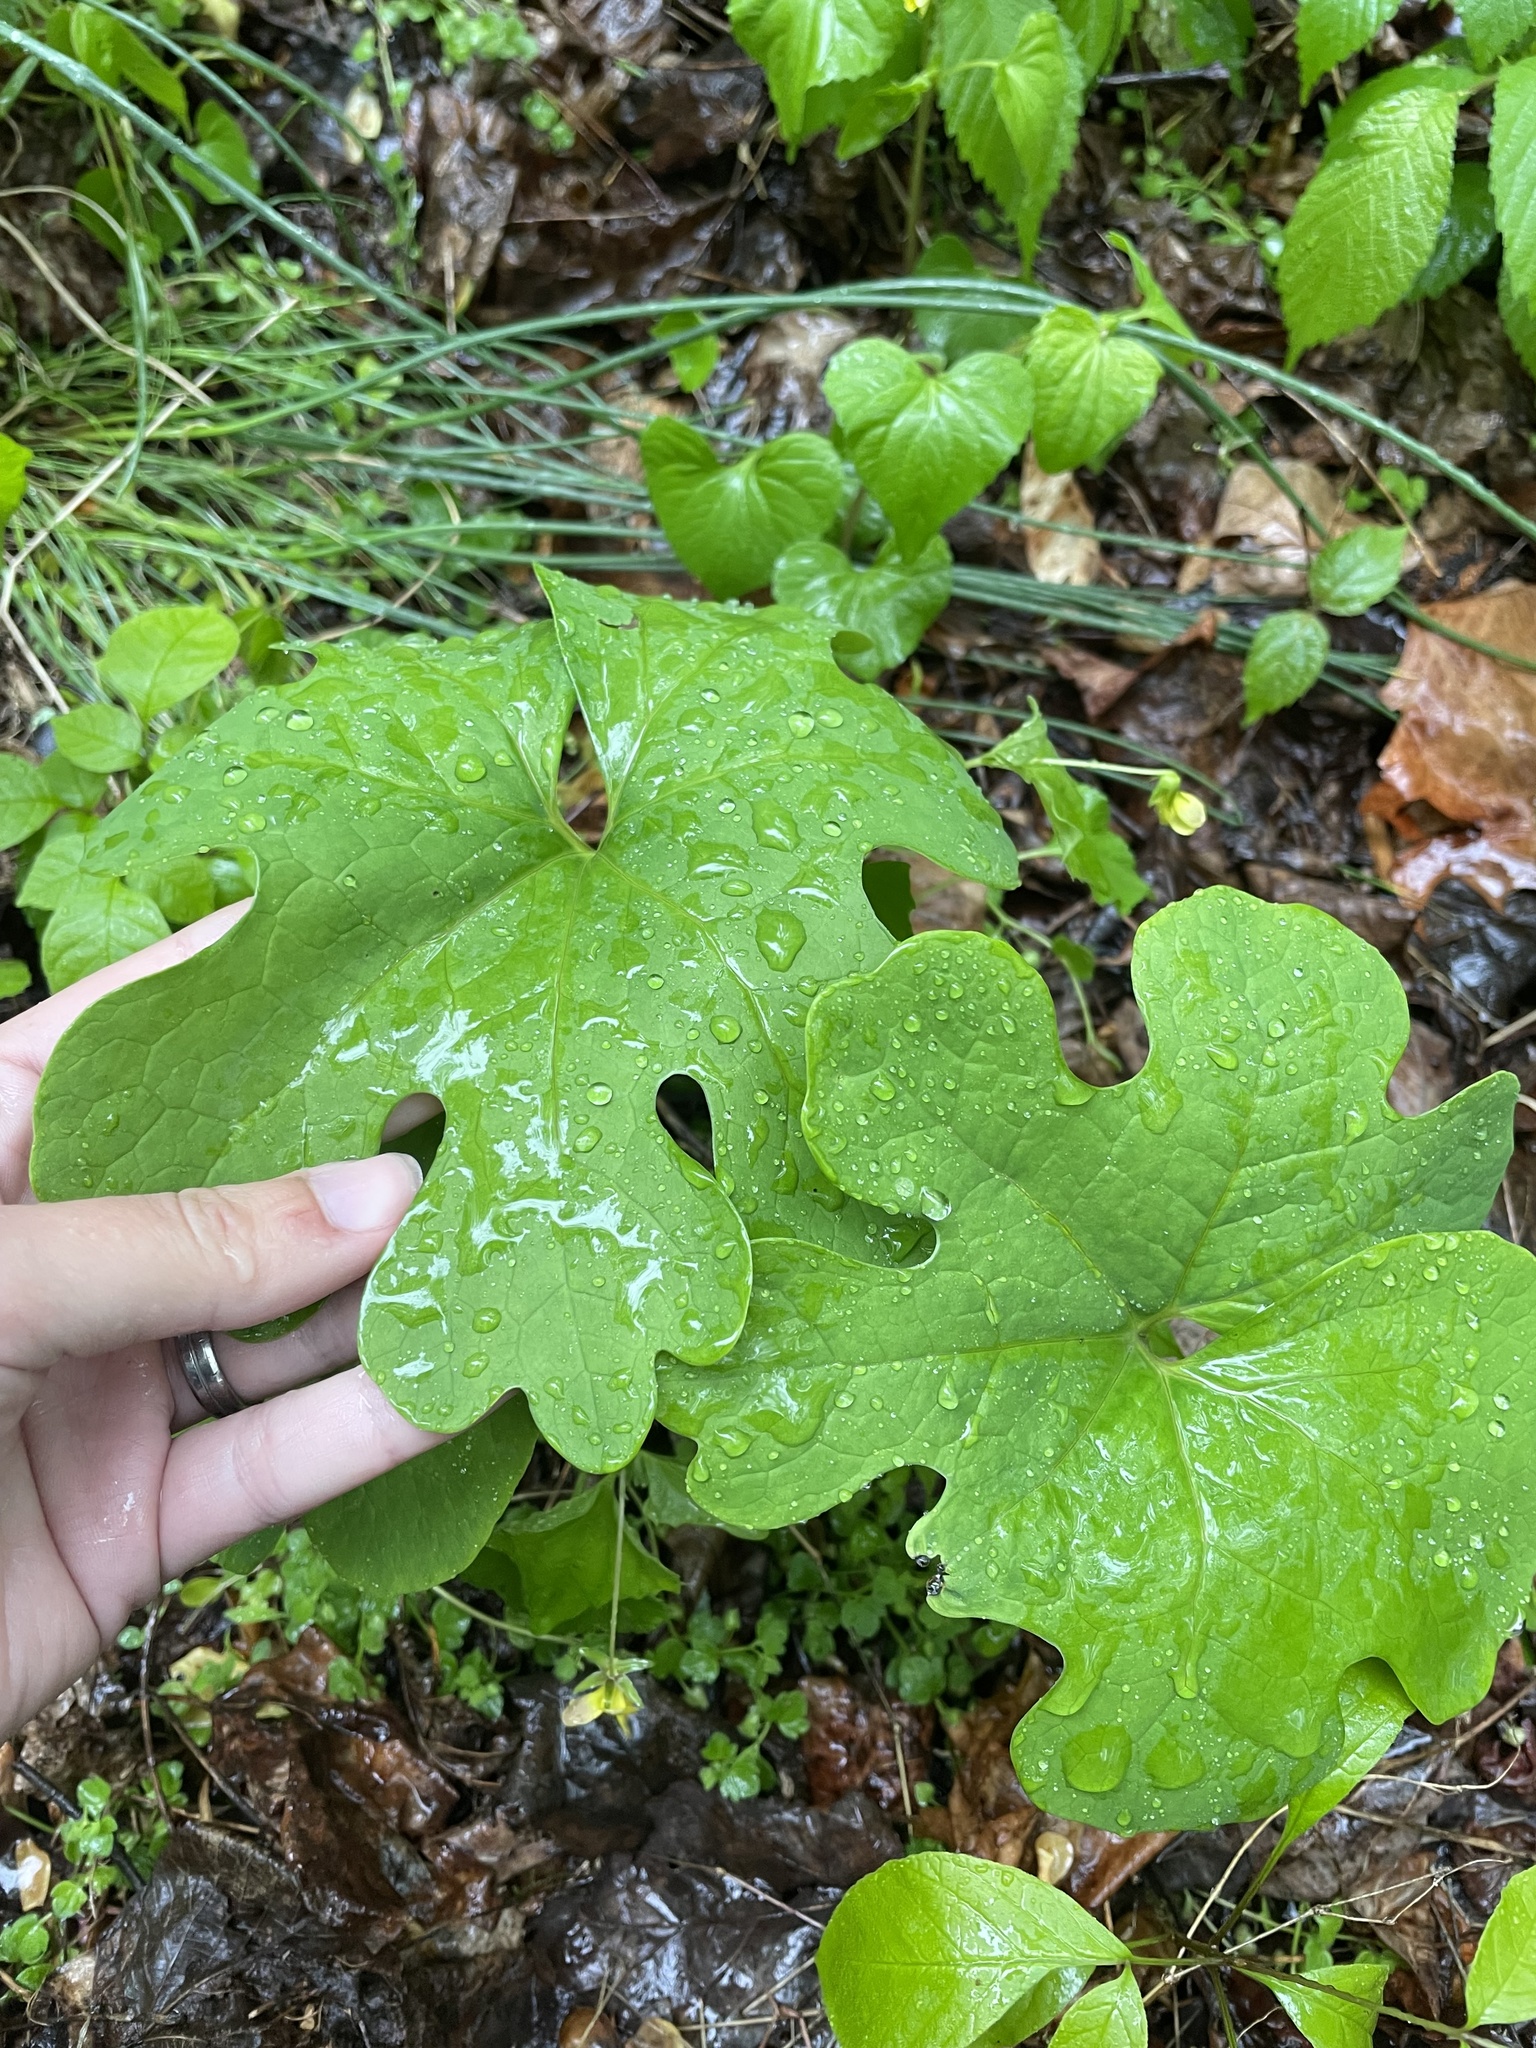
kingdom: Plantae
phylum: Tracheophyta
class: Magnoliopsida
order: Ranunculales
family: Papaveraceae
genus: Sanguinaria
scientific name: Sanguinaria canadensis
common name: Bloodroot
